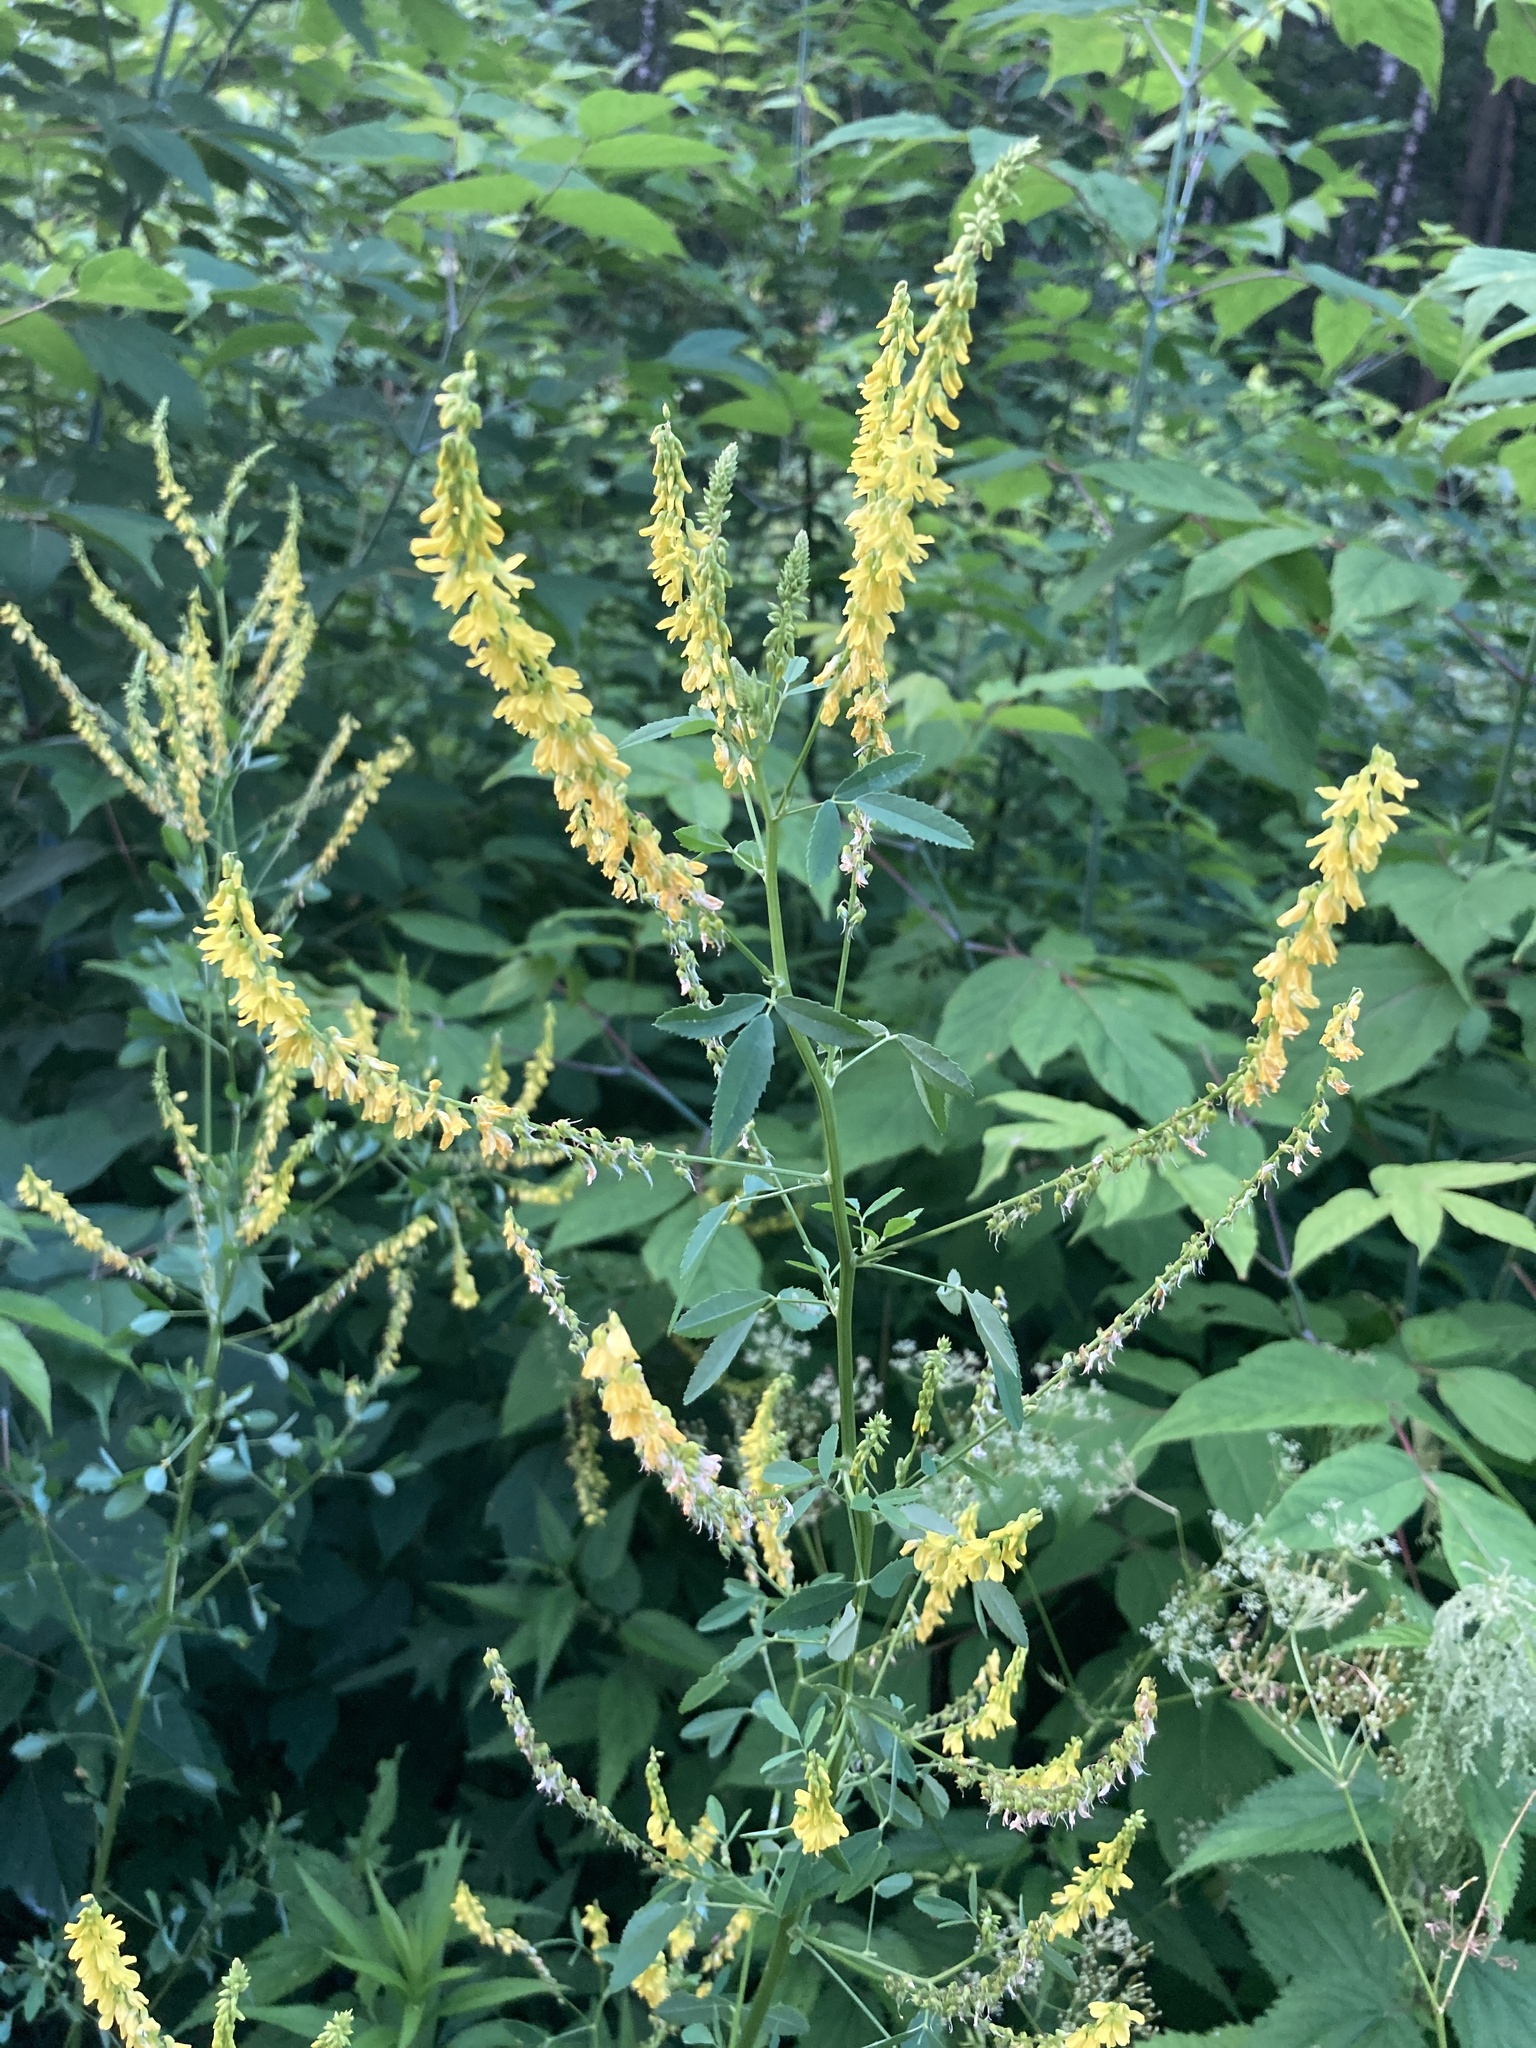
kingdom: Plantae
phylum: Tracheophyta
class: Magnoliopsida
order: Fabales
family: Fabaceae
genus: Melilotus
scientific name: Melilotus officinalis
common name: Sweetclover
